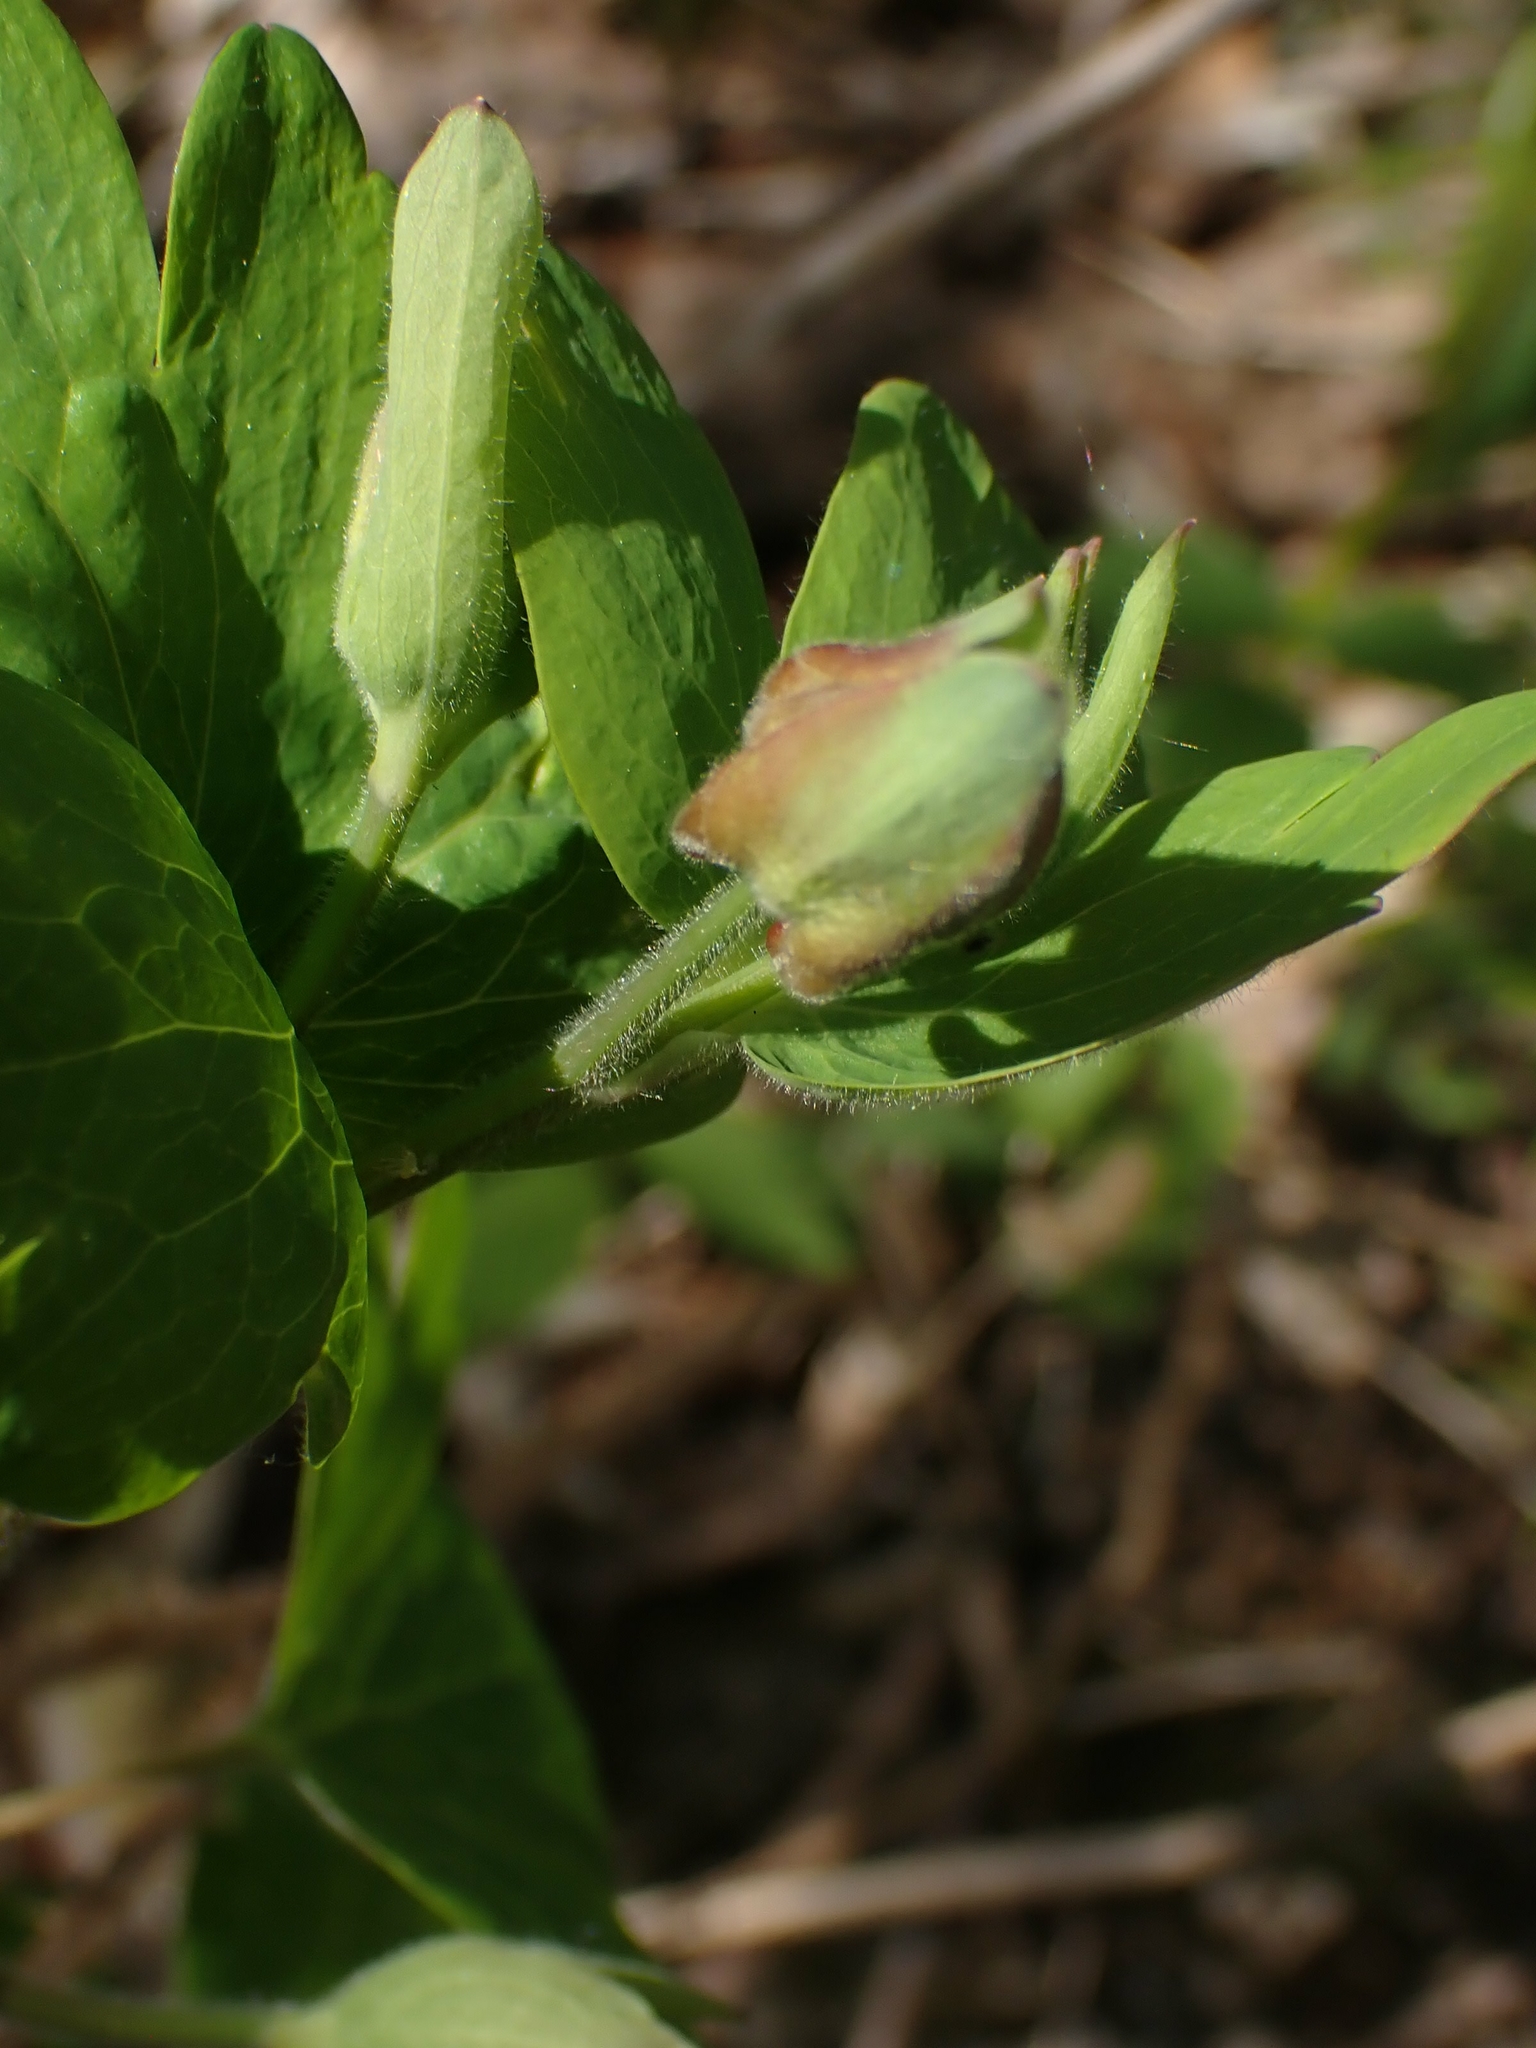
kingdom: Plantae
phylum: Tracheophyta
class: Magnoliopsida
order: Ranunculales
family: Ranunculaceae
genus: Aquilegia
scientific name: Aquilegia canadensis
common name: American columbine
